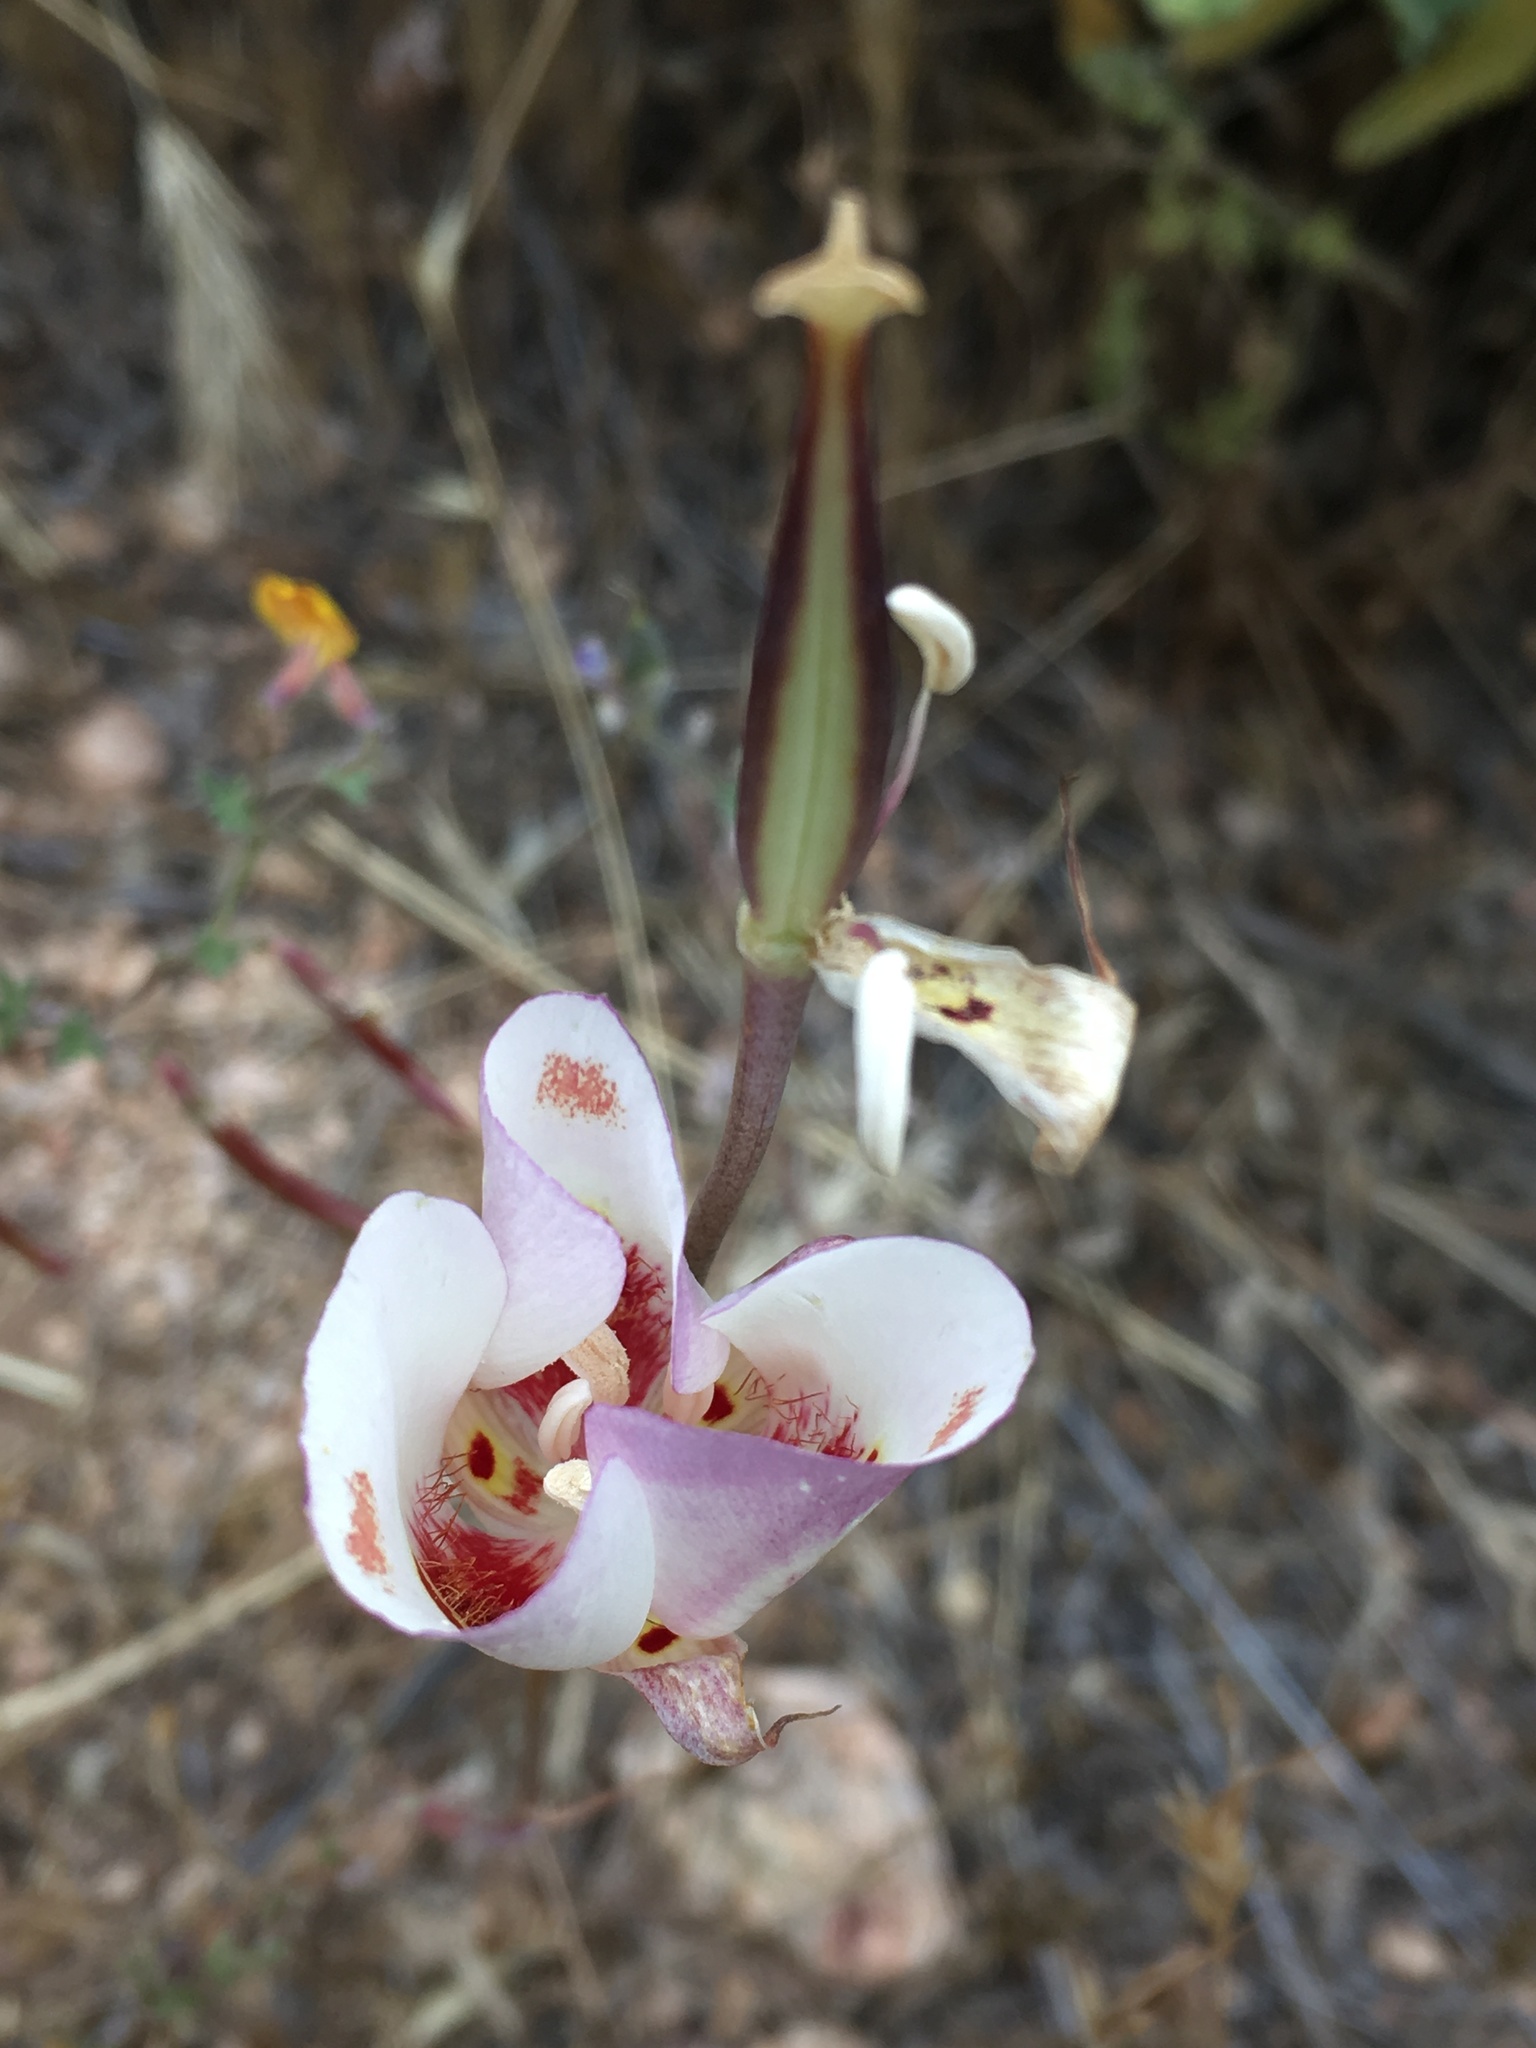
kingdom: Plantae
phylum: Tracheophyta
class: Liliopsida
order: Liliales
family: Liliaceae
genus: Calochortus
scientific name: Calochortus venustus
